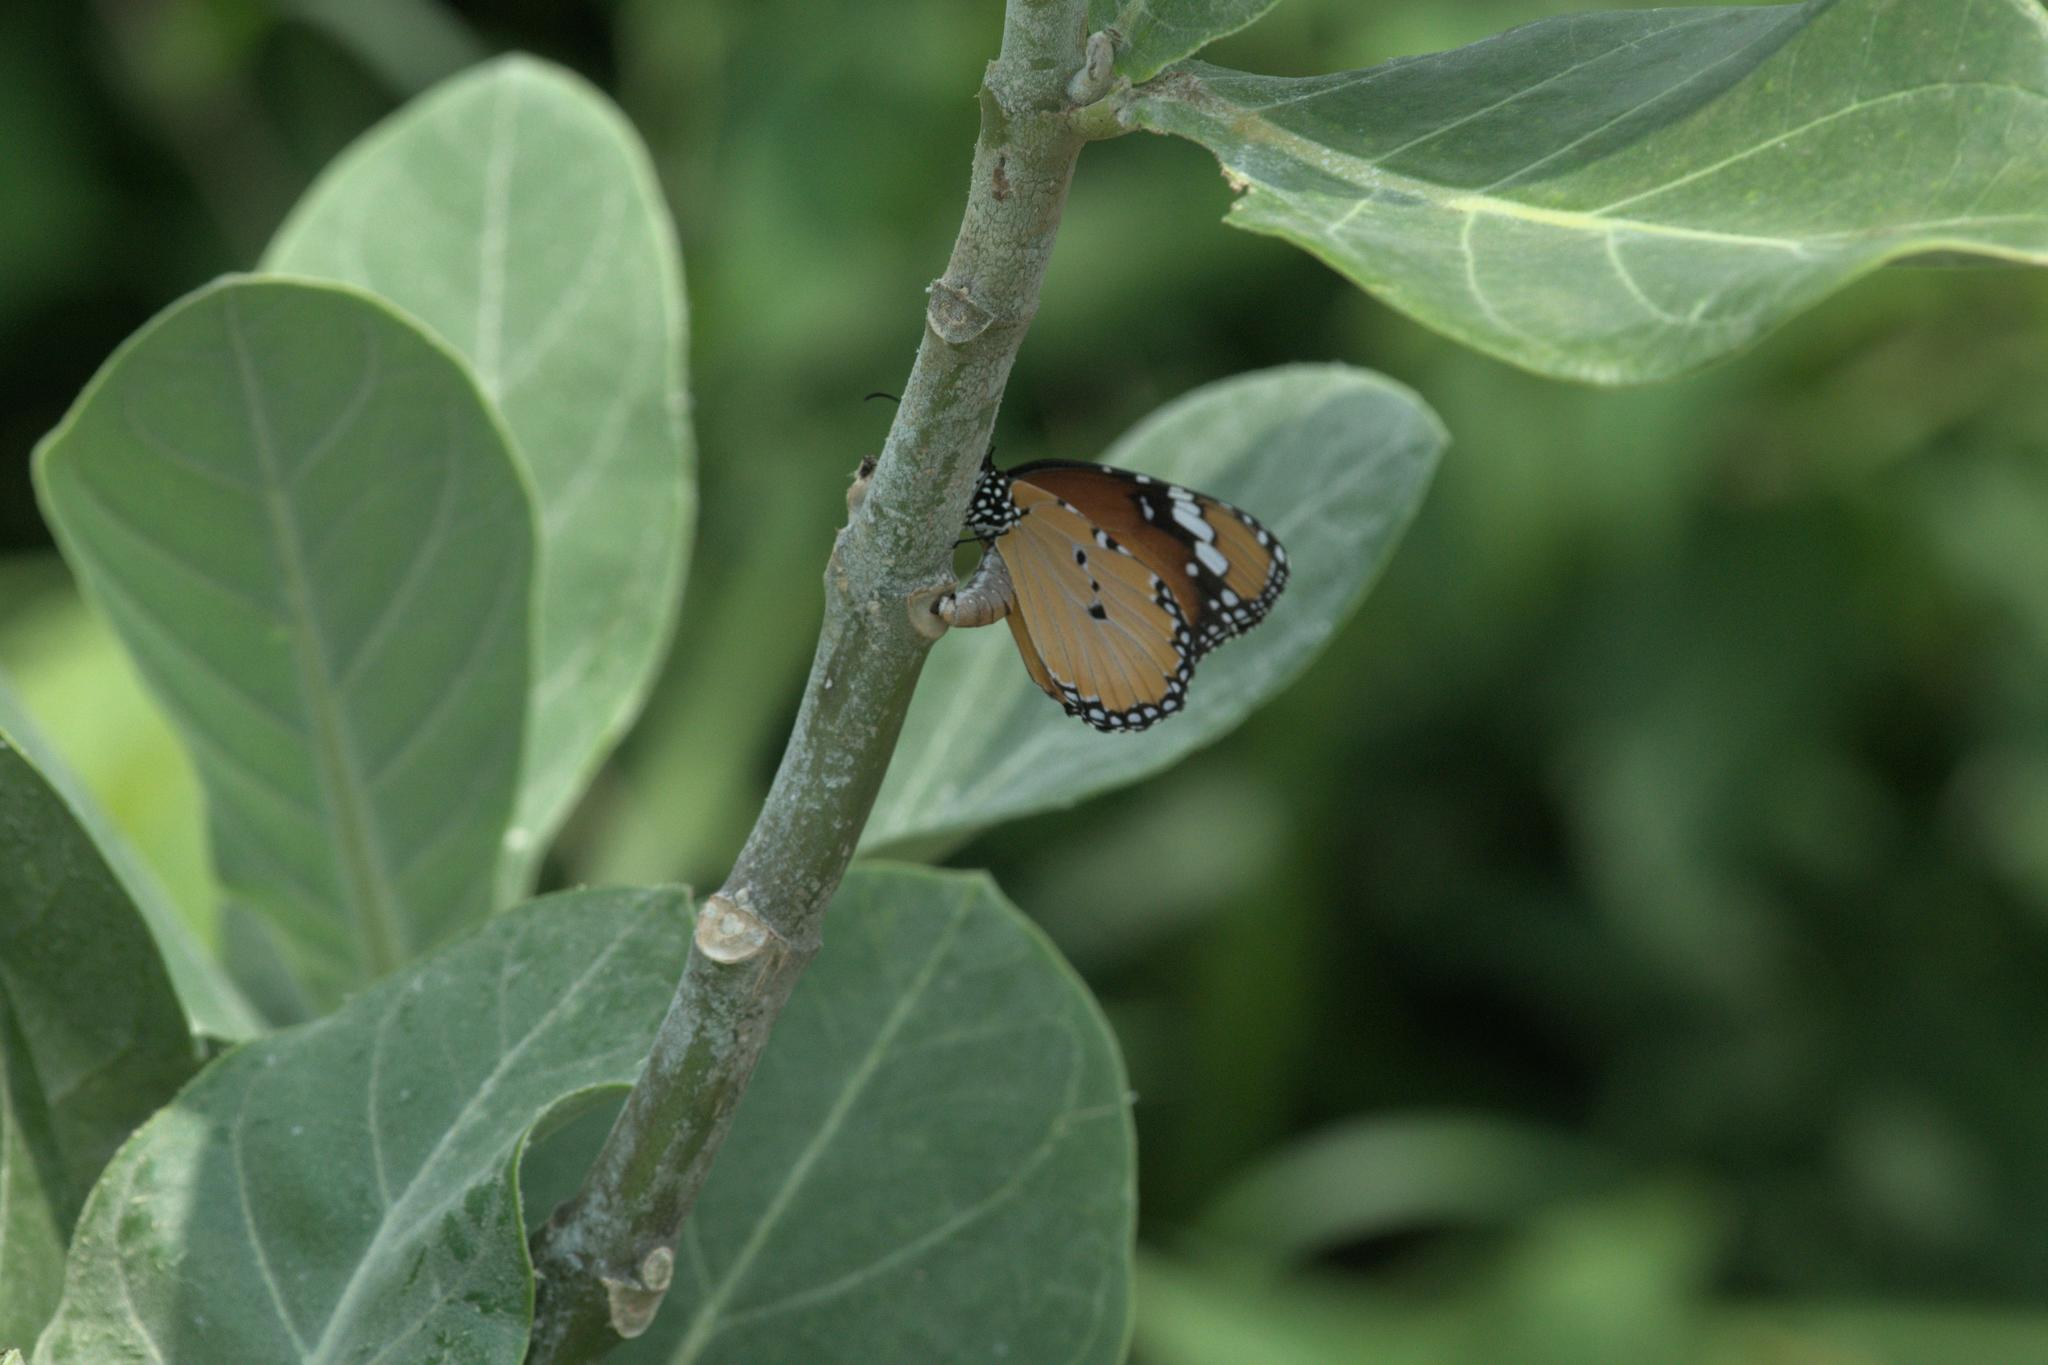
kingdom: Animalia
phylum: Arthropoda
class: Insecta
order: Lepidoptera
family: Nymphalidae
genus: Danaus
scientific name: Danaus chrysippus
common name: Plain tiger
